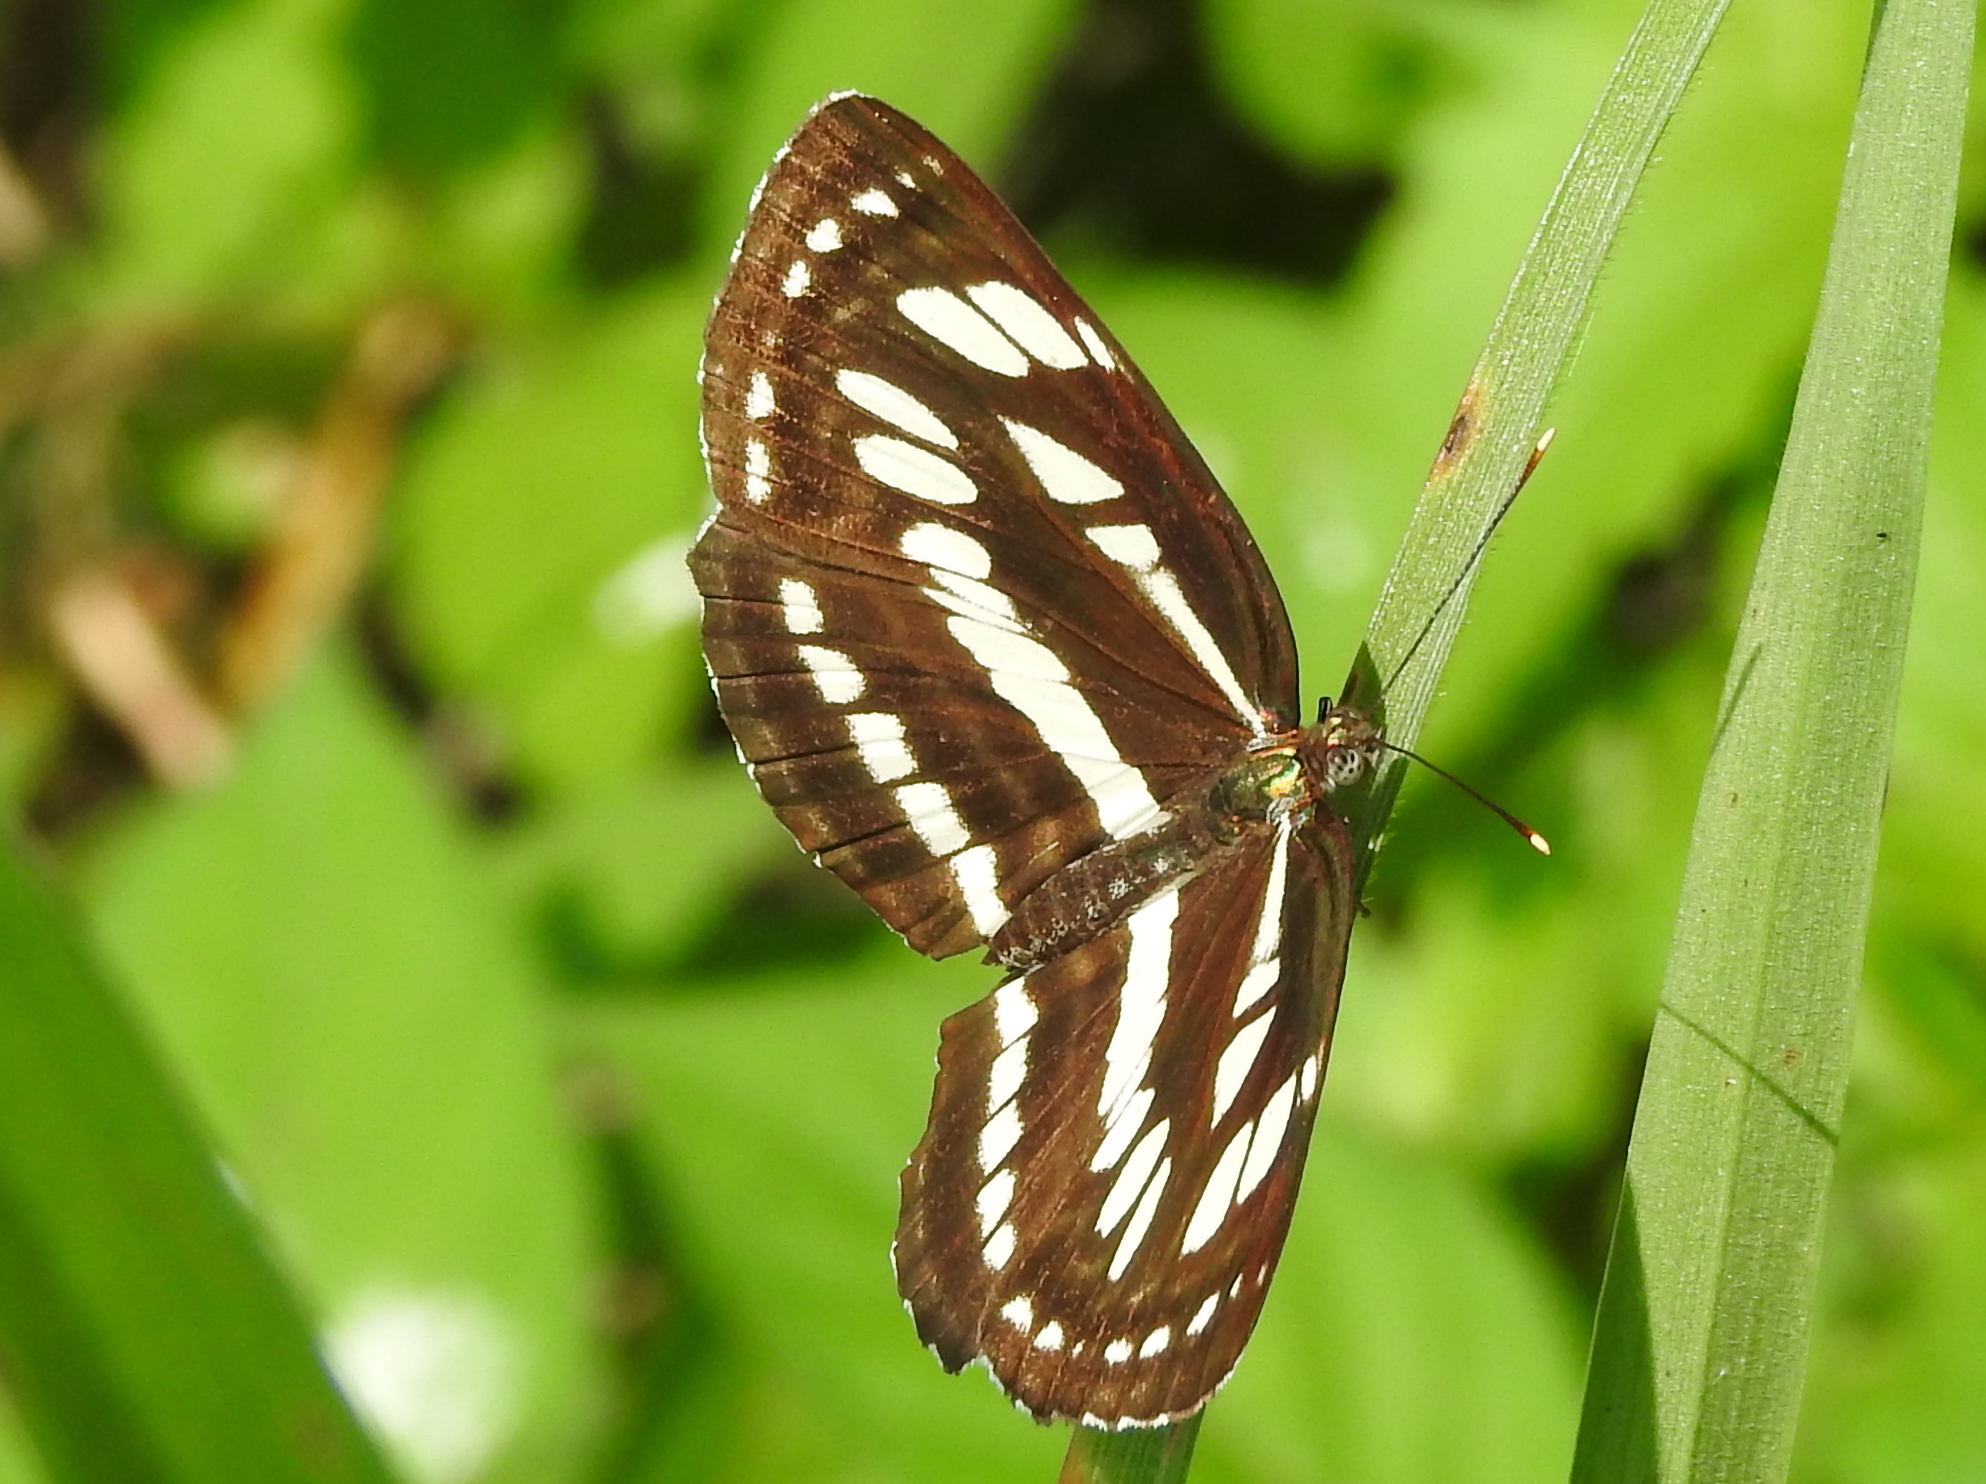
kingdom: Animalia
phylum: Arthropoda
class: Insecta
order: Lepidoptera
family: Nymphalidae
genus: Neptis
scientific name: Neptis hylas
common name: Common sailer
